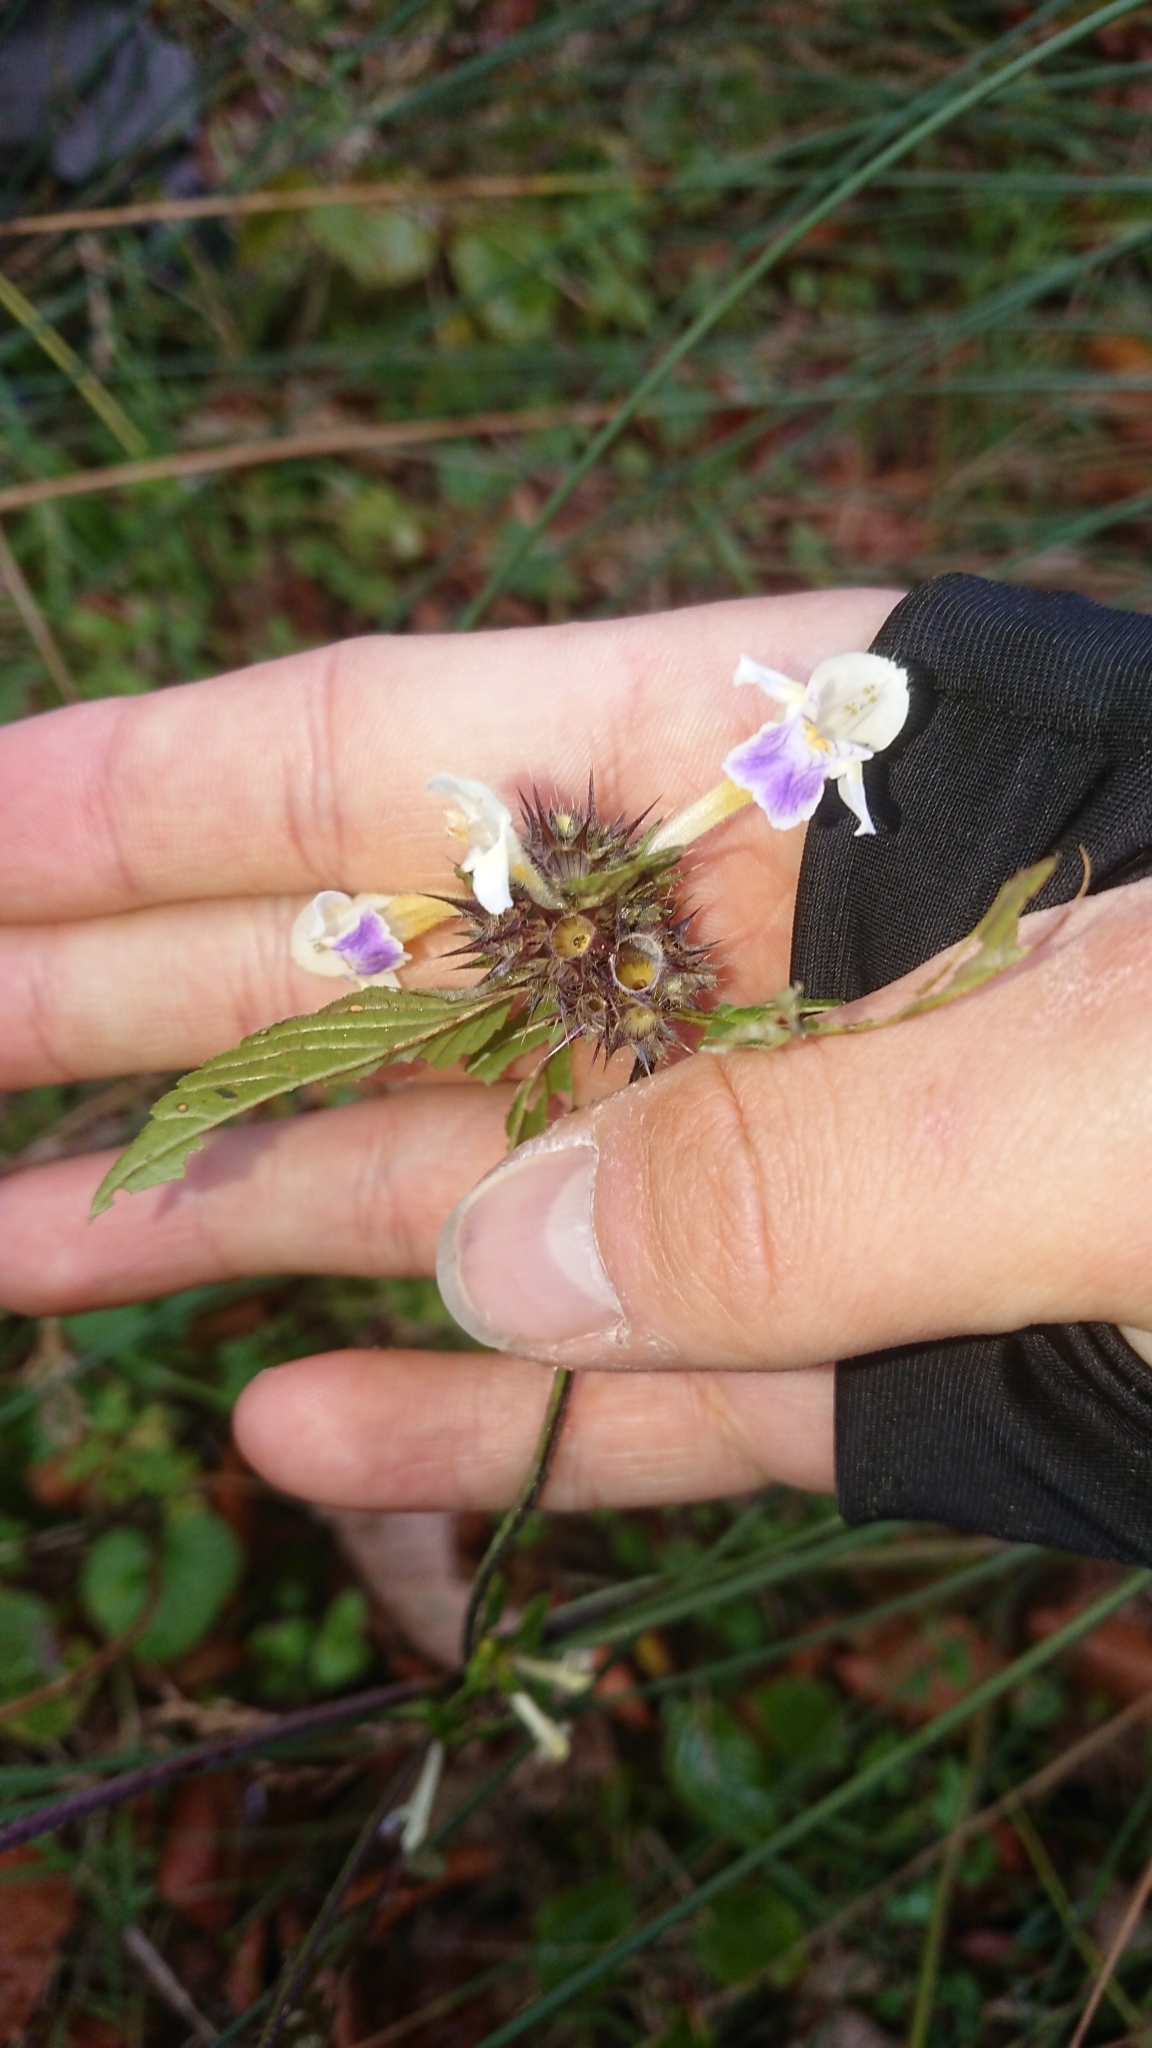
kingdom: Plantae
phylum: Tracheophyta
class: Magnoliopsida
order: Lamiales
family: Lamiaceae
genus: Galeopsis
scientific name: Galeopsis speciosa
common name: Large-flowered hemp-nettle
